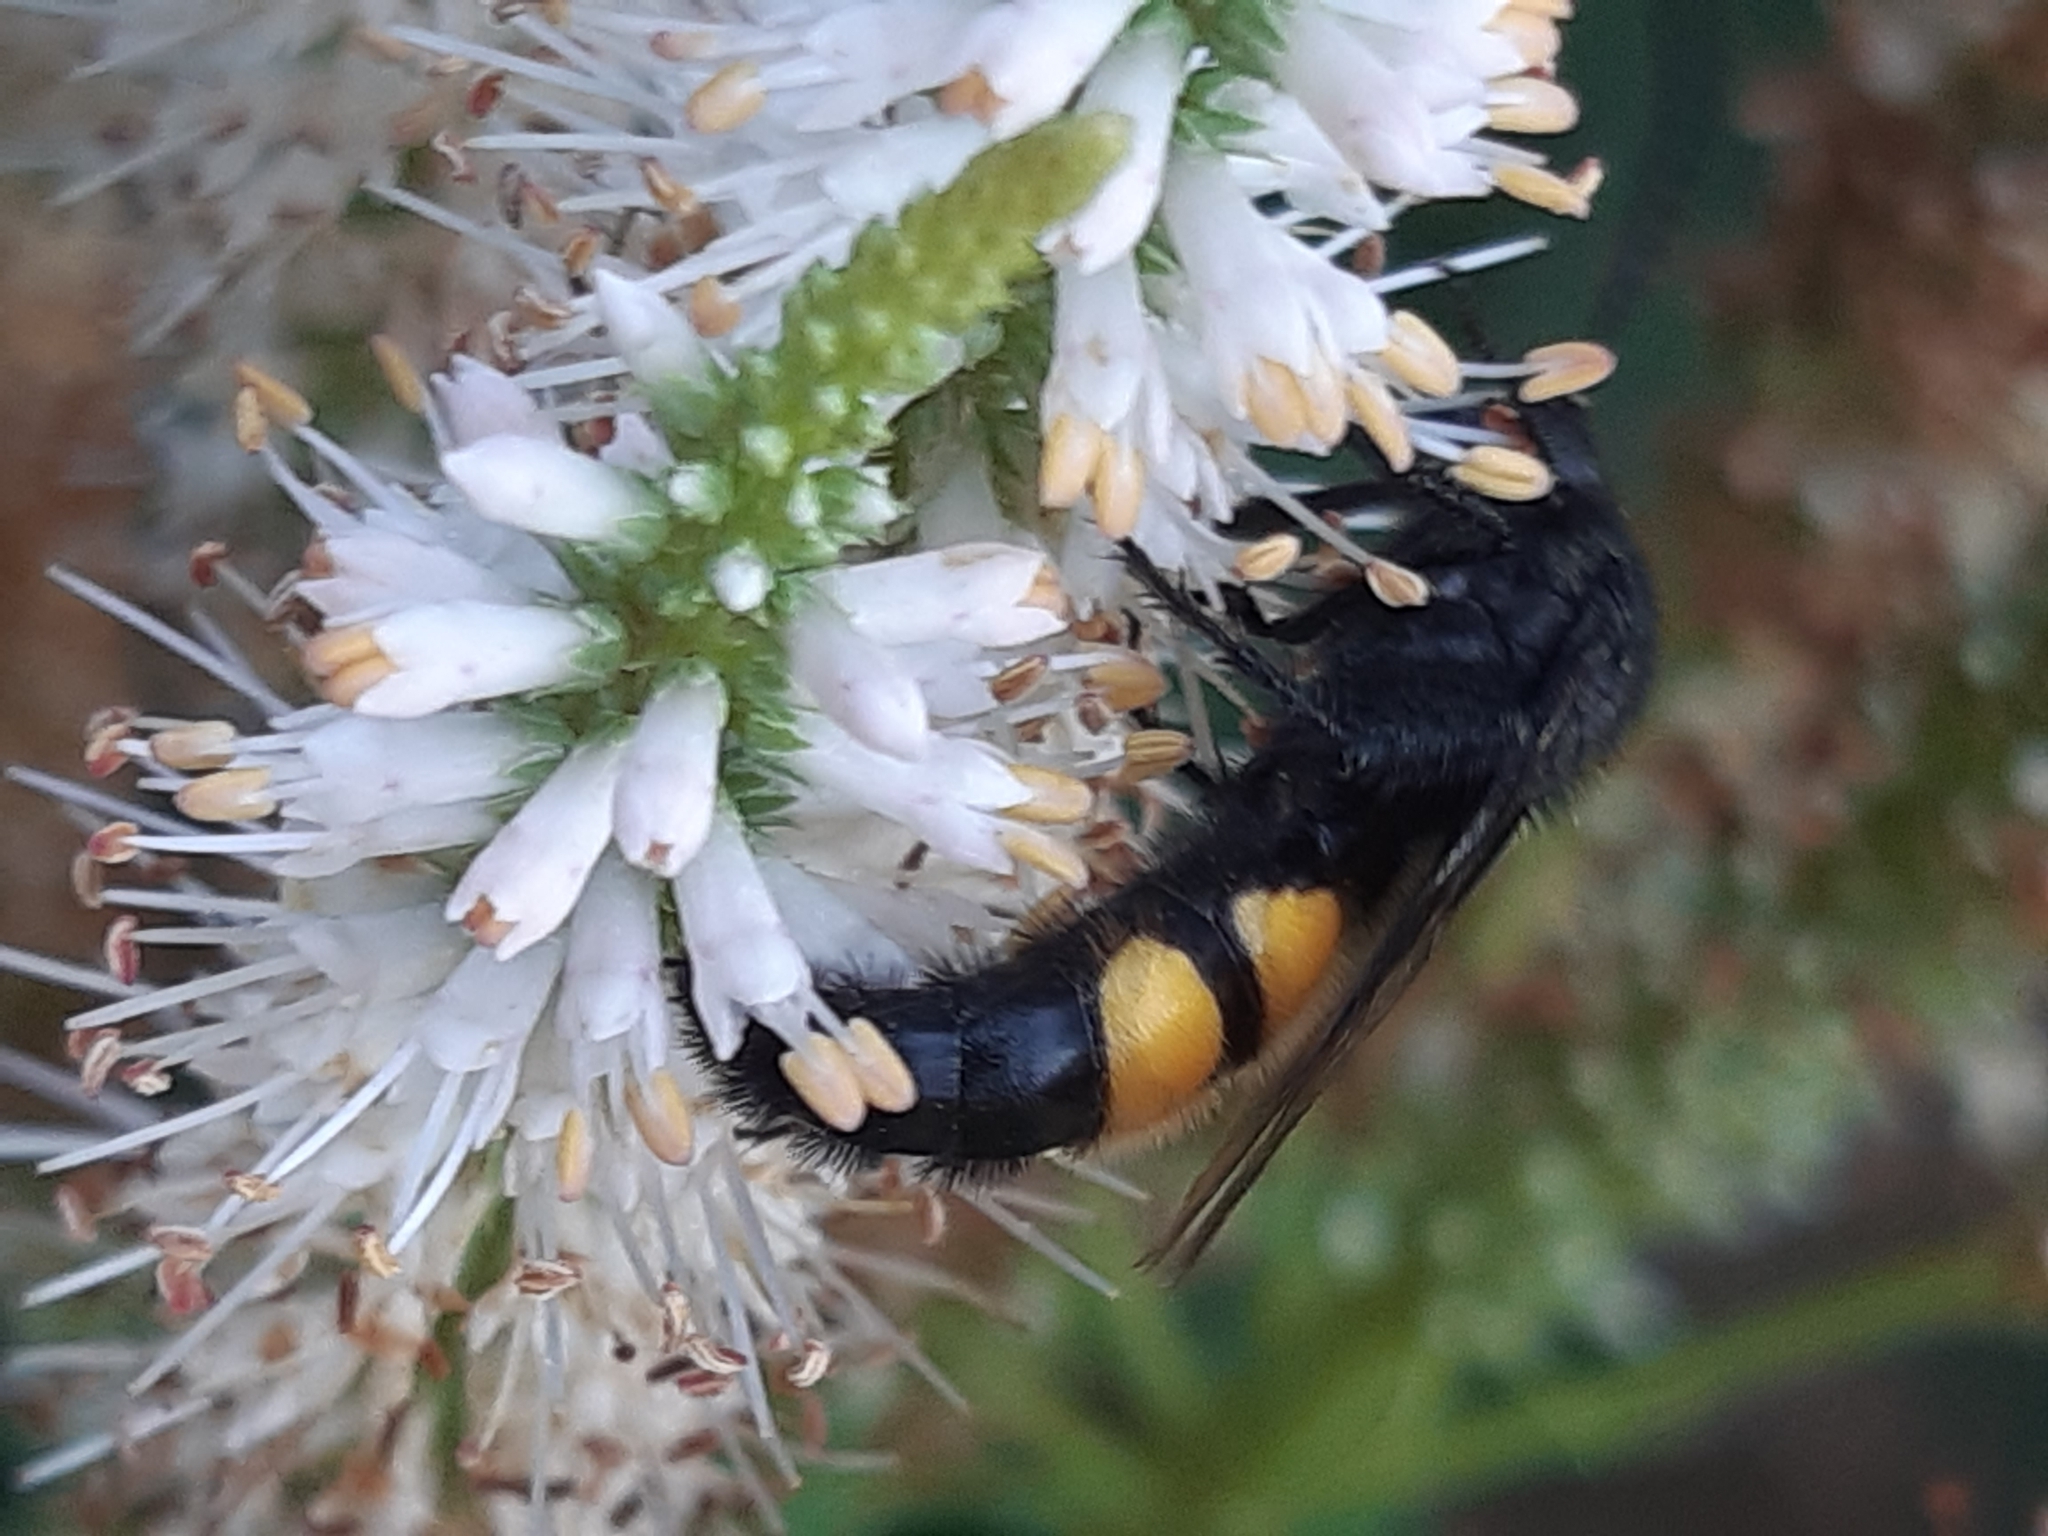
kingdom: Animalia
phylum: Arthropoda
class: Insecta
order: Hymenoptera
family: Scoliidae
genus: Scolia
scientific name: Scolia hirta
